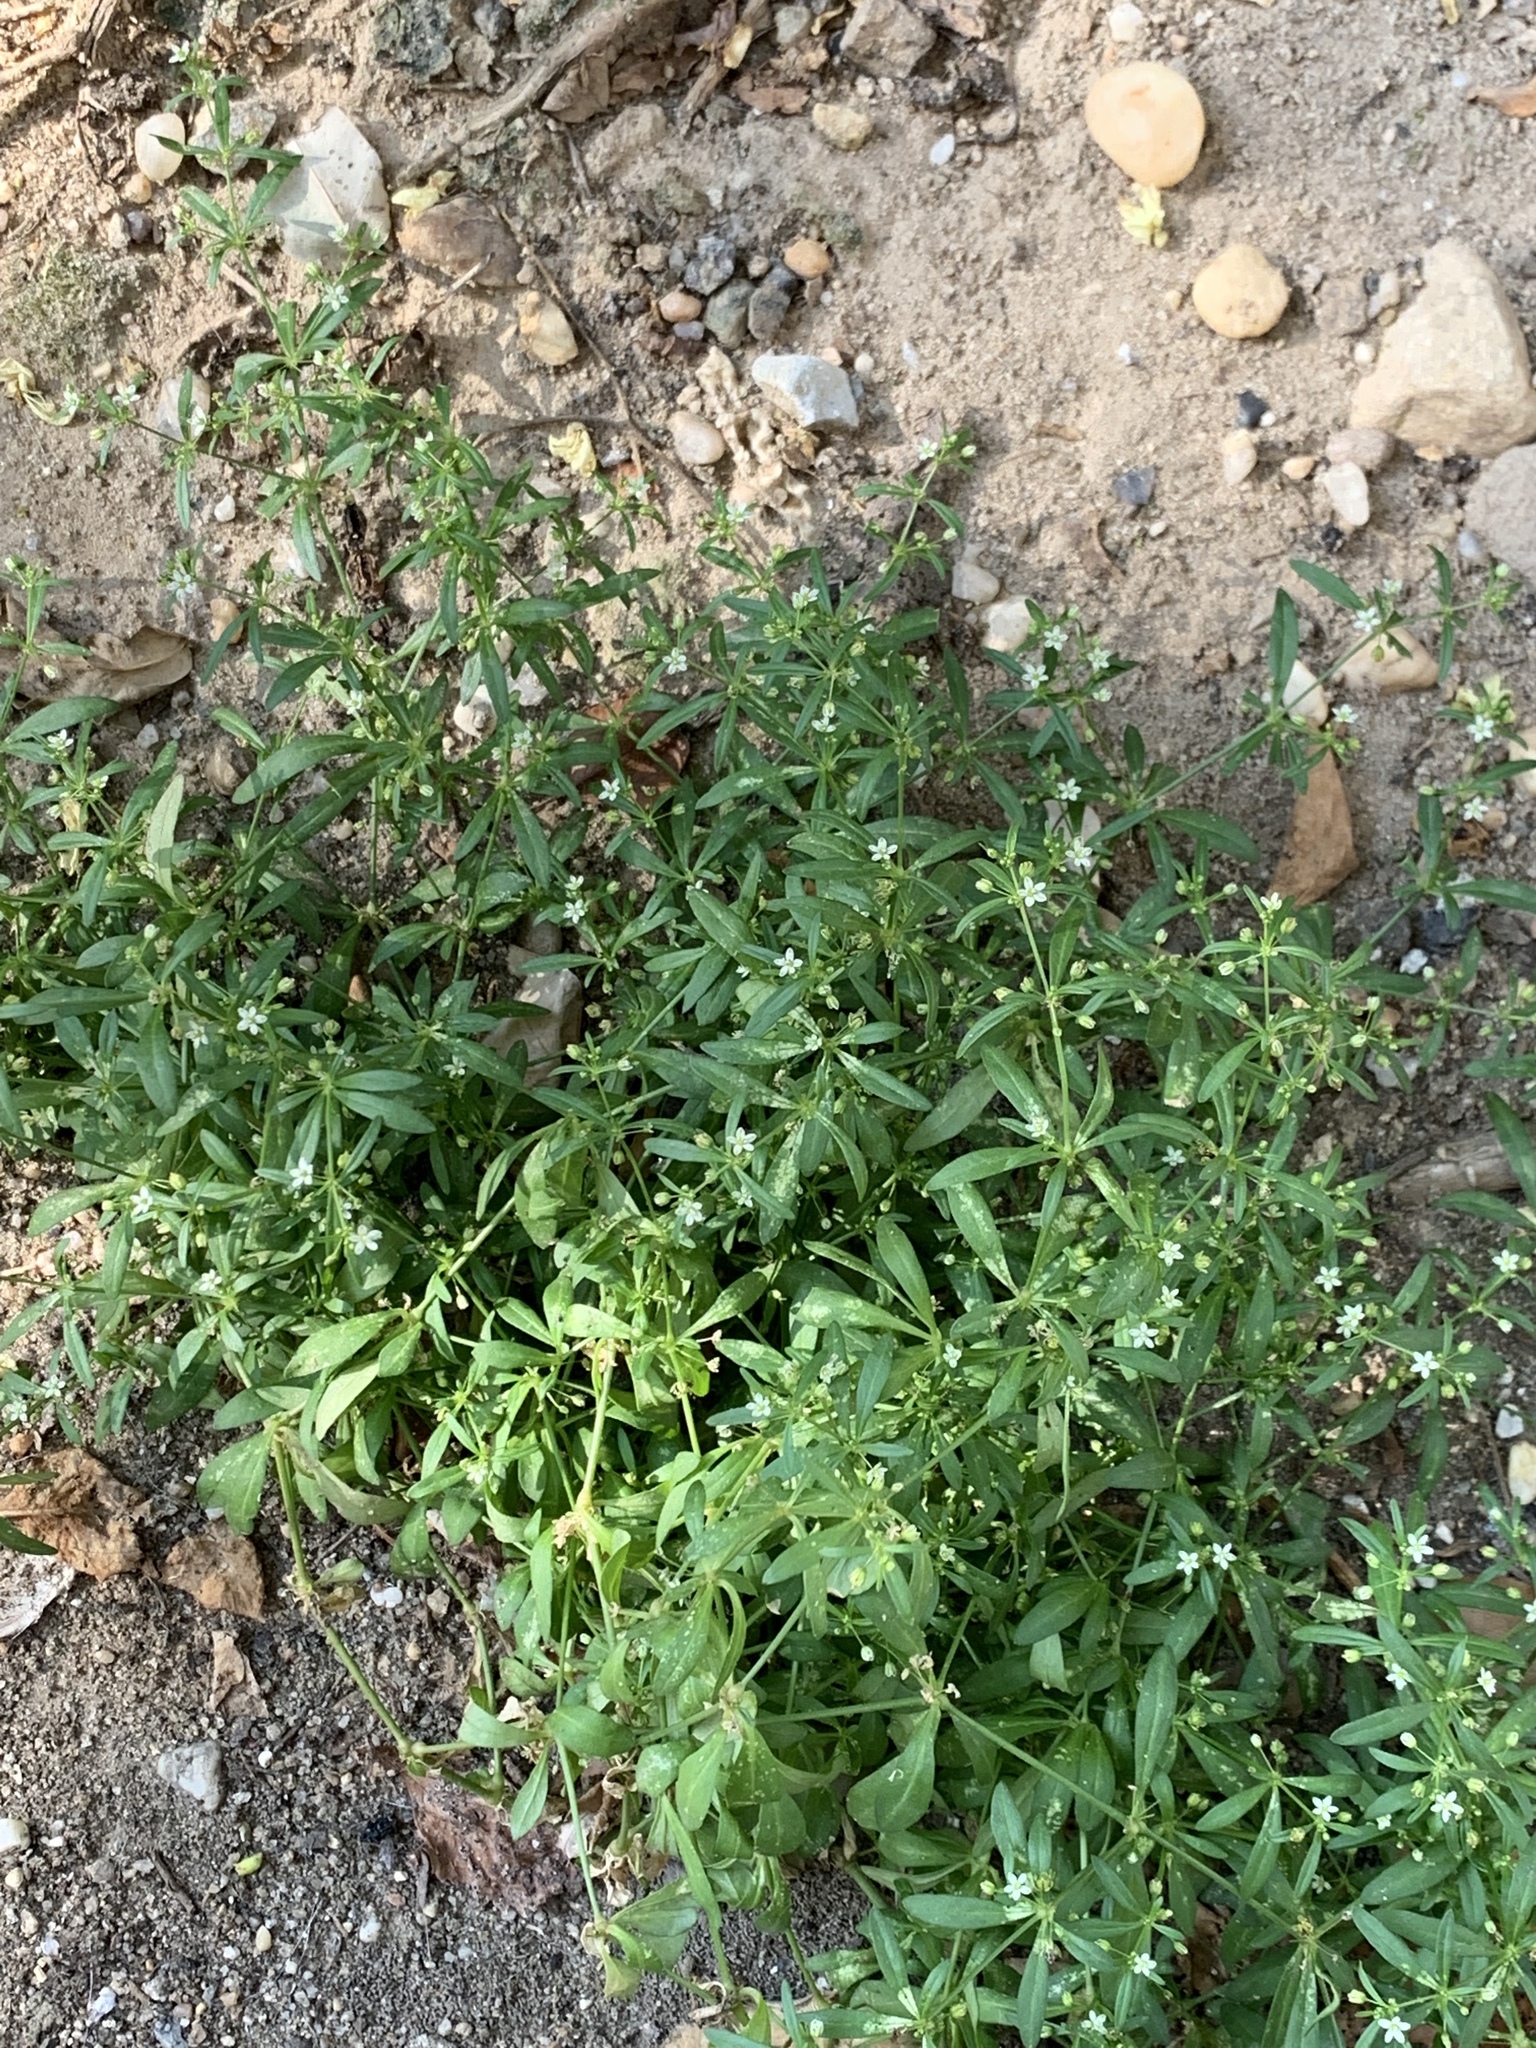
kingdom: Plantae
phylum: Tracheophyta
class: Magnoliopsida
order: Caryophyllales
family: Molluginaceae
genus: Mollugo
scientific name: Mollugo verticillata
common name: Green carpetweed
